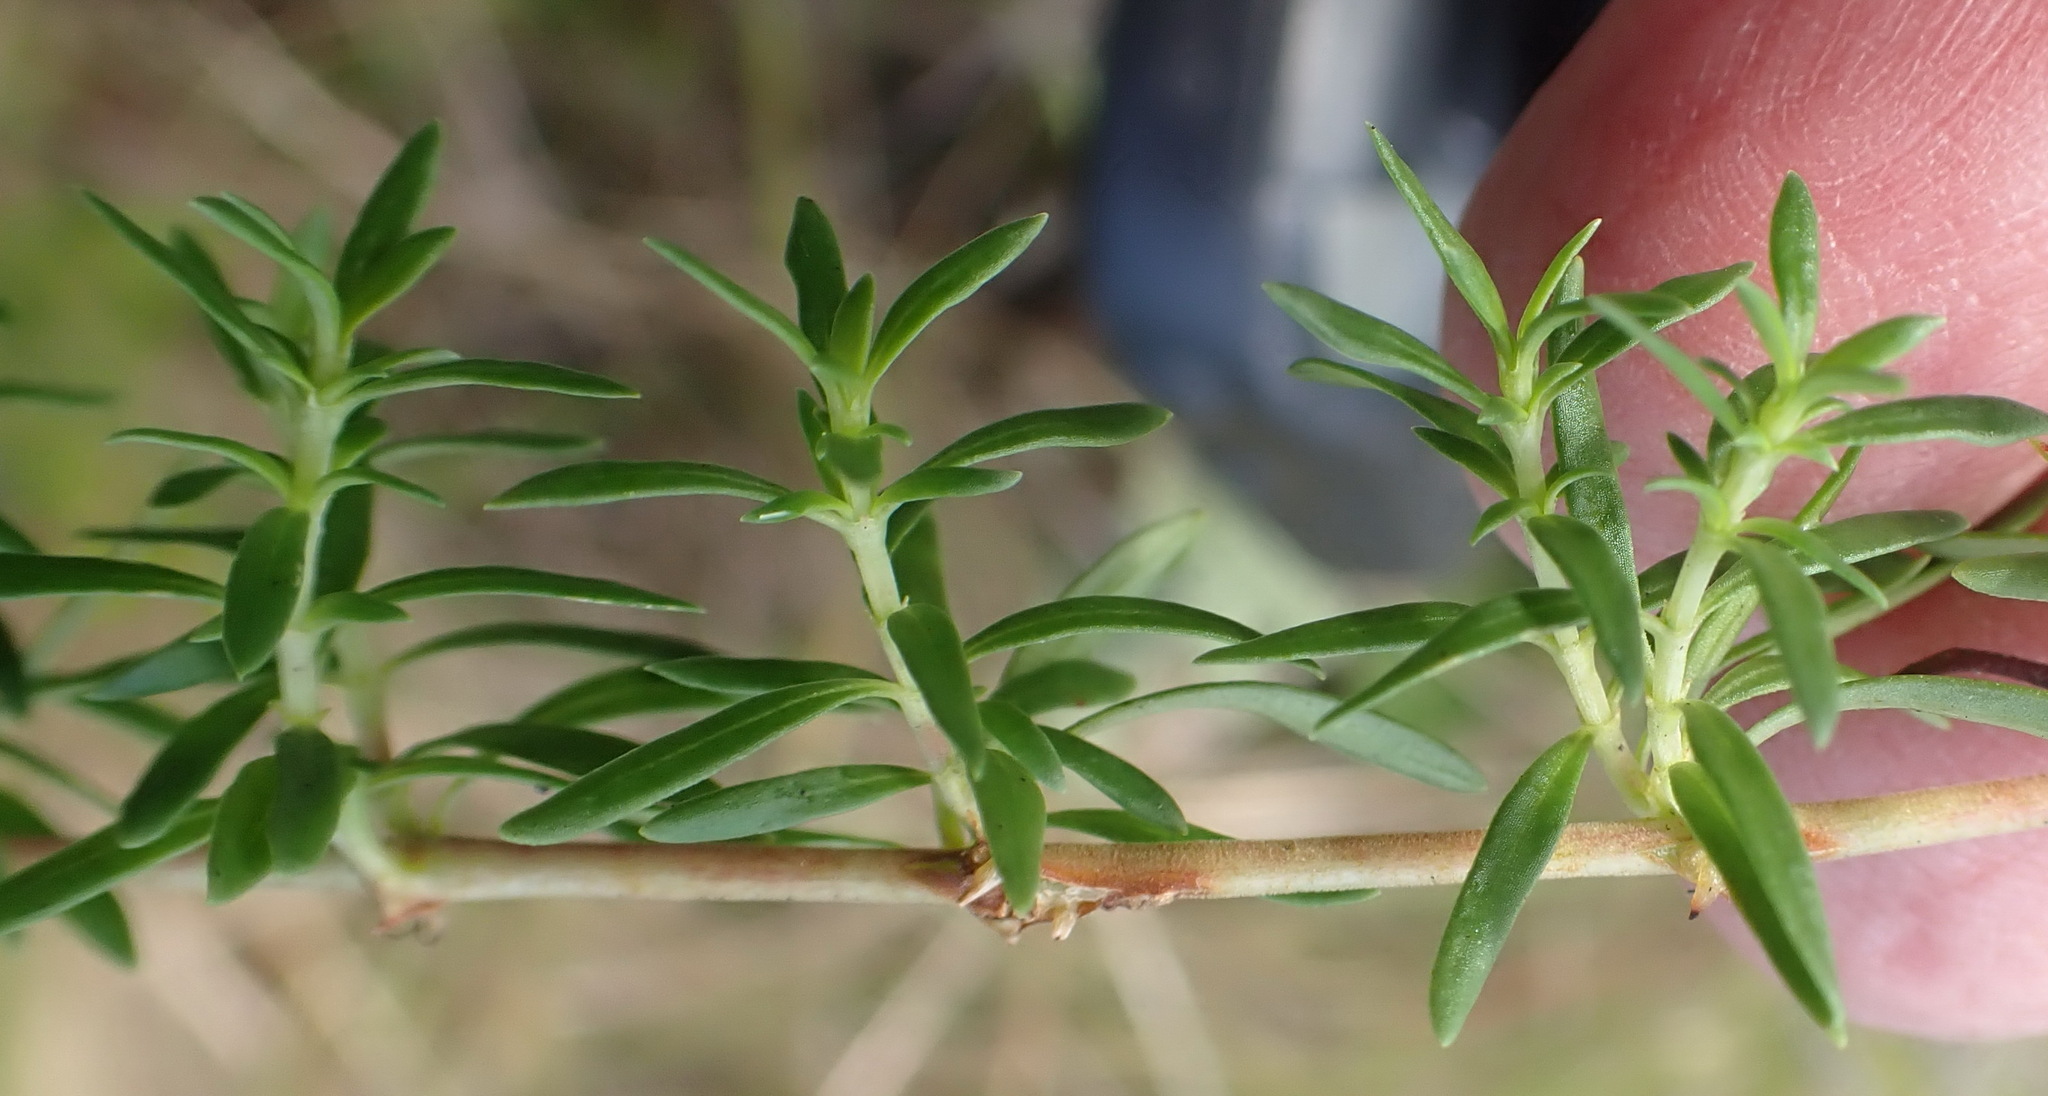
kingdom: Plantae
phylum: Tracheophyta
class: Magnoliopsida
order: Gentianales
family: Rubiaceae
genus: Carpacoce
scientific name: Carpacoce spermacocea
